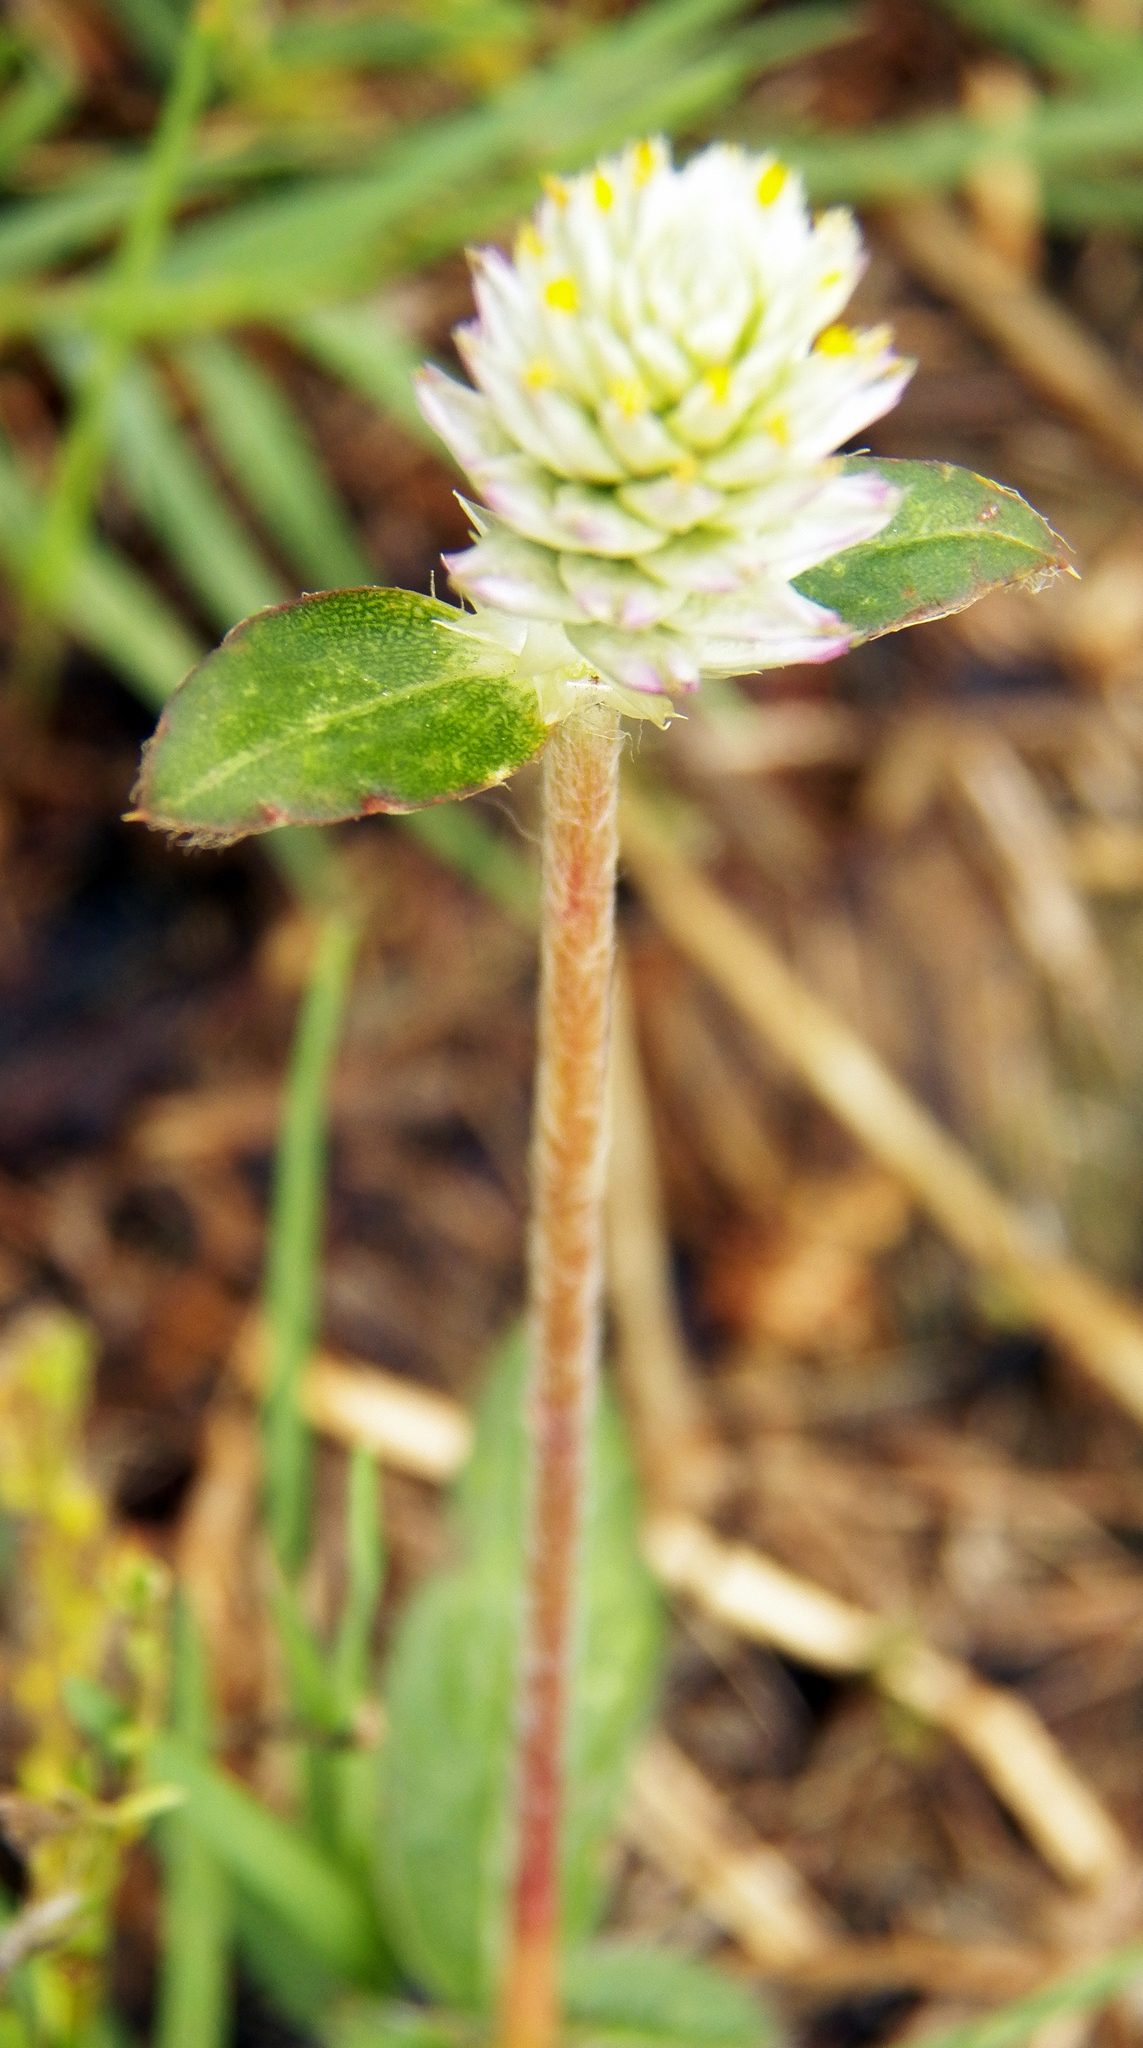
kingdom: Plantae
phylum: Tracheophyta
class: Magnoliopsida
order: Caryophyllales
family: Amaranthaceae
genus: Gomphrena
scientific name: Gomphrena serrata
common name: Arrasa con todo
